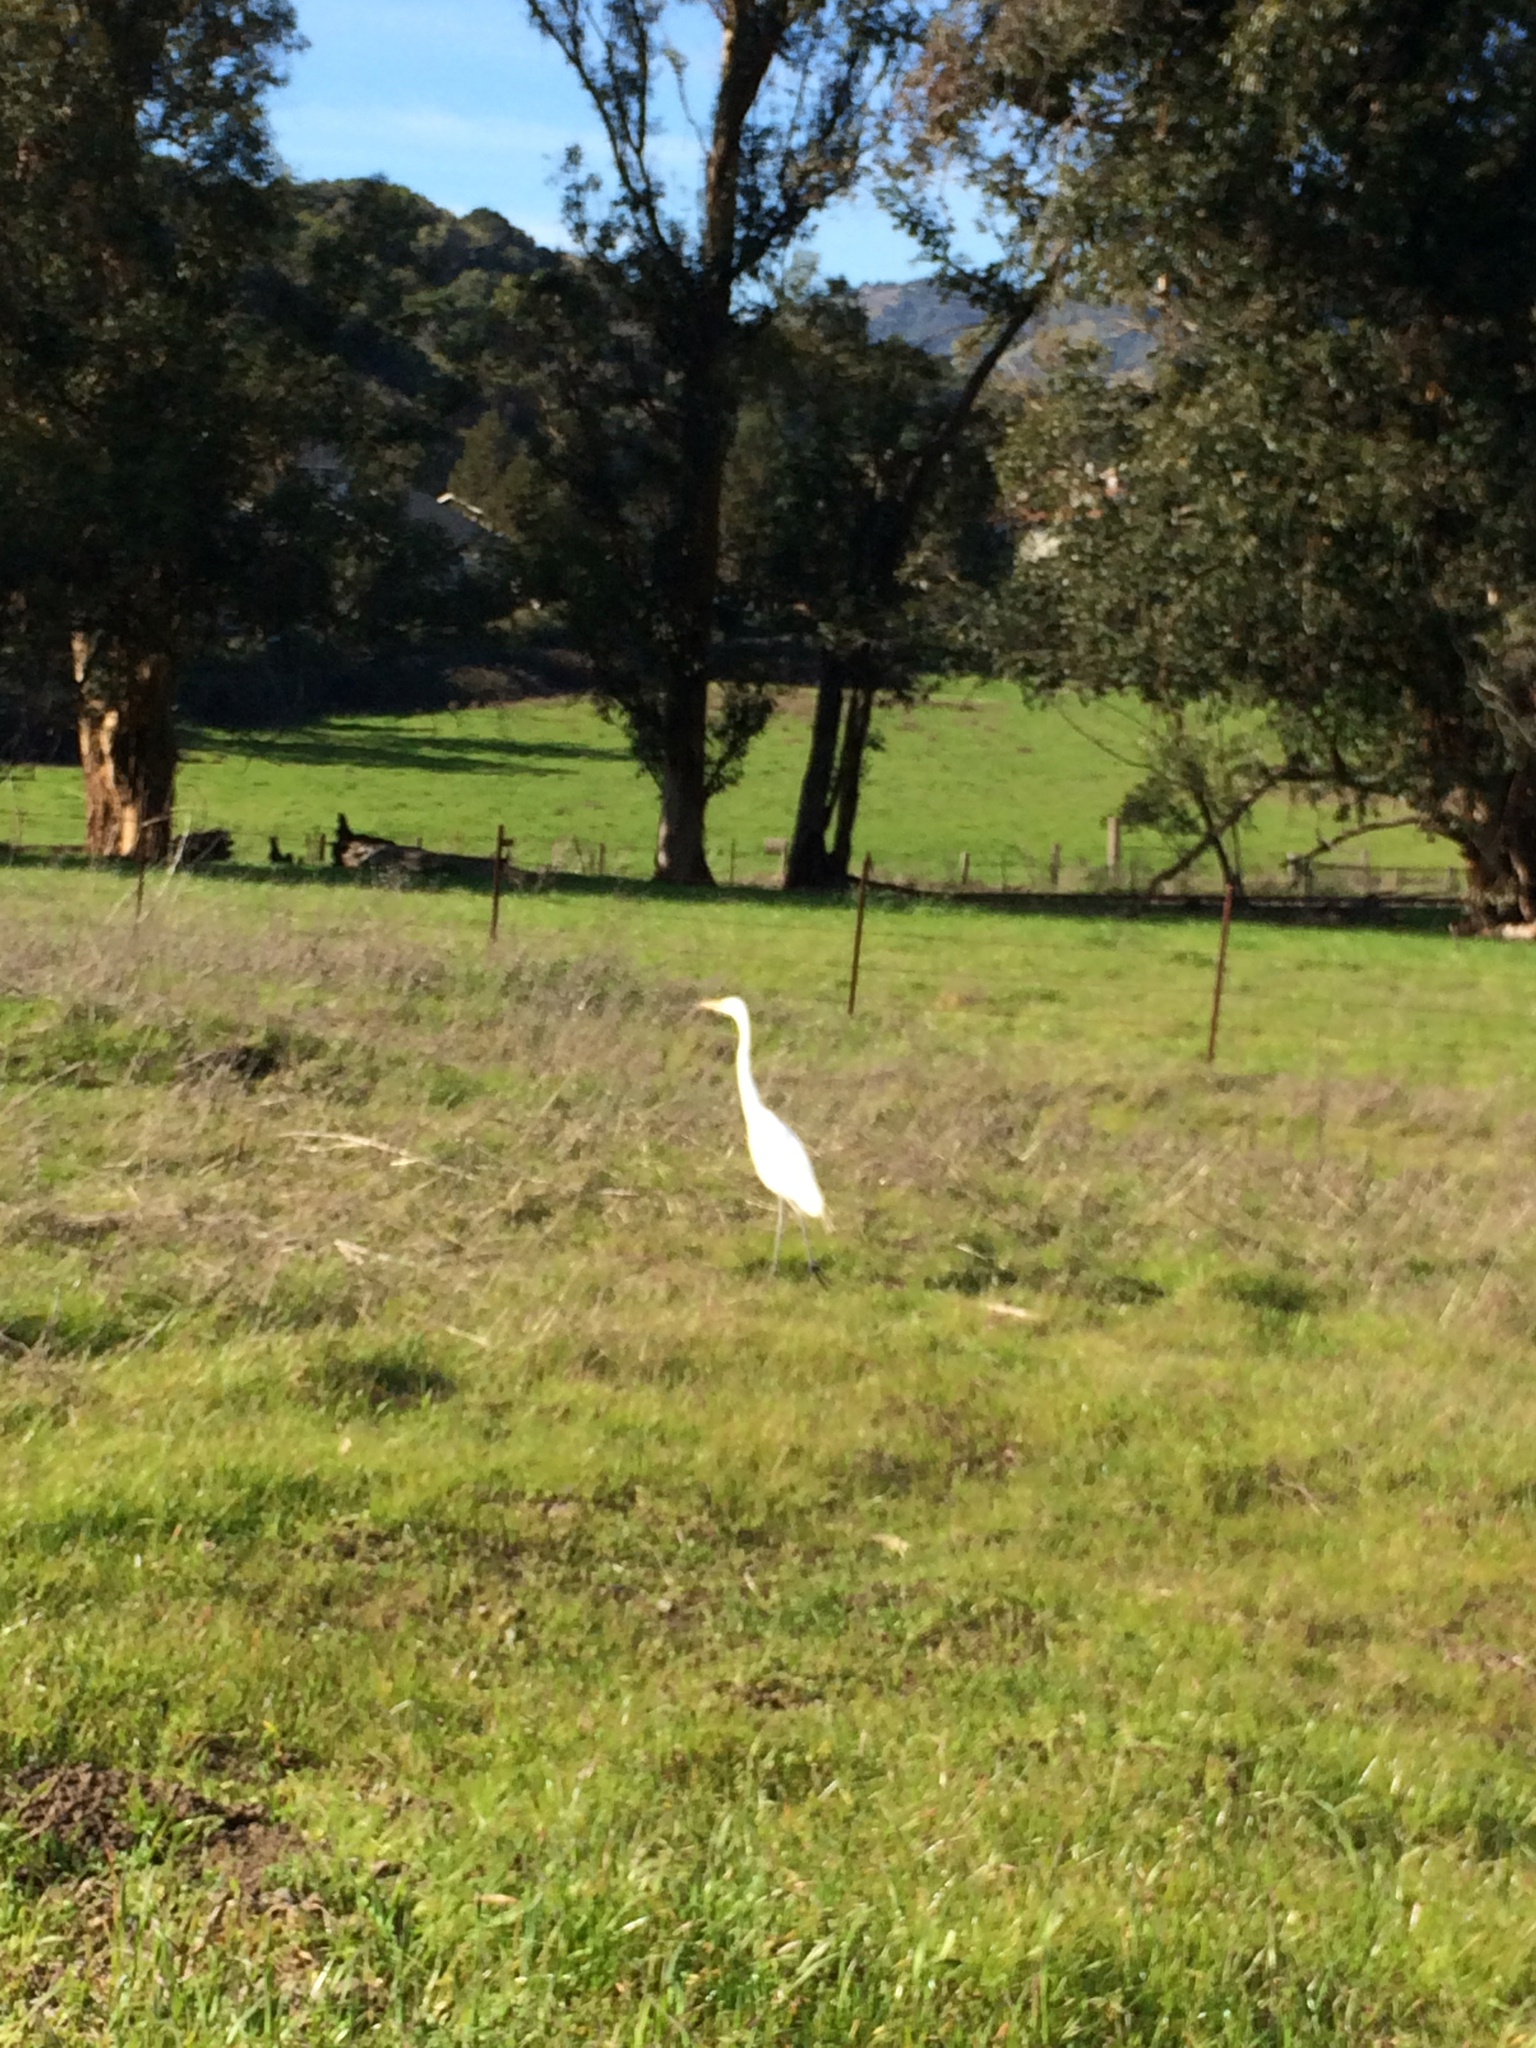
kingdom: Animalia
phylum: Chordata
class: Aves
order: Pelecaniformes
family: Ardeidae
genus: Ardea
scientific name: Ardea alba
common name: Great egret
